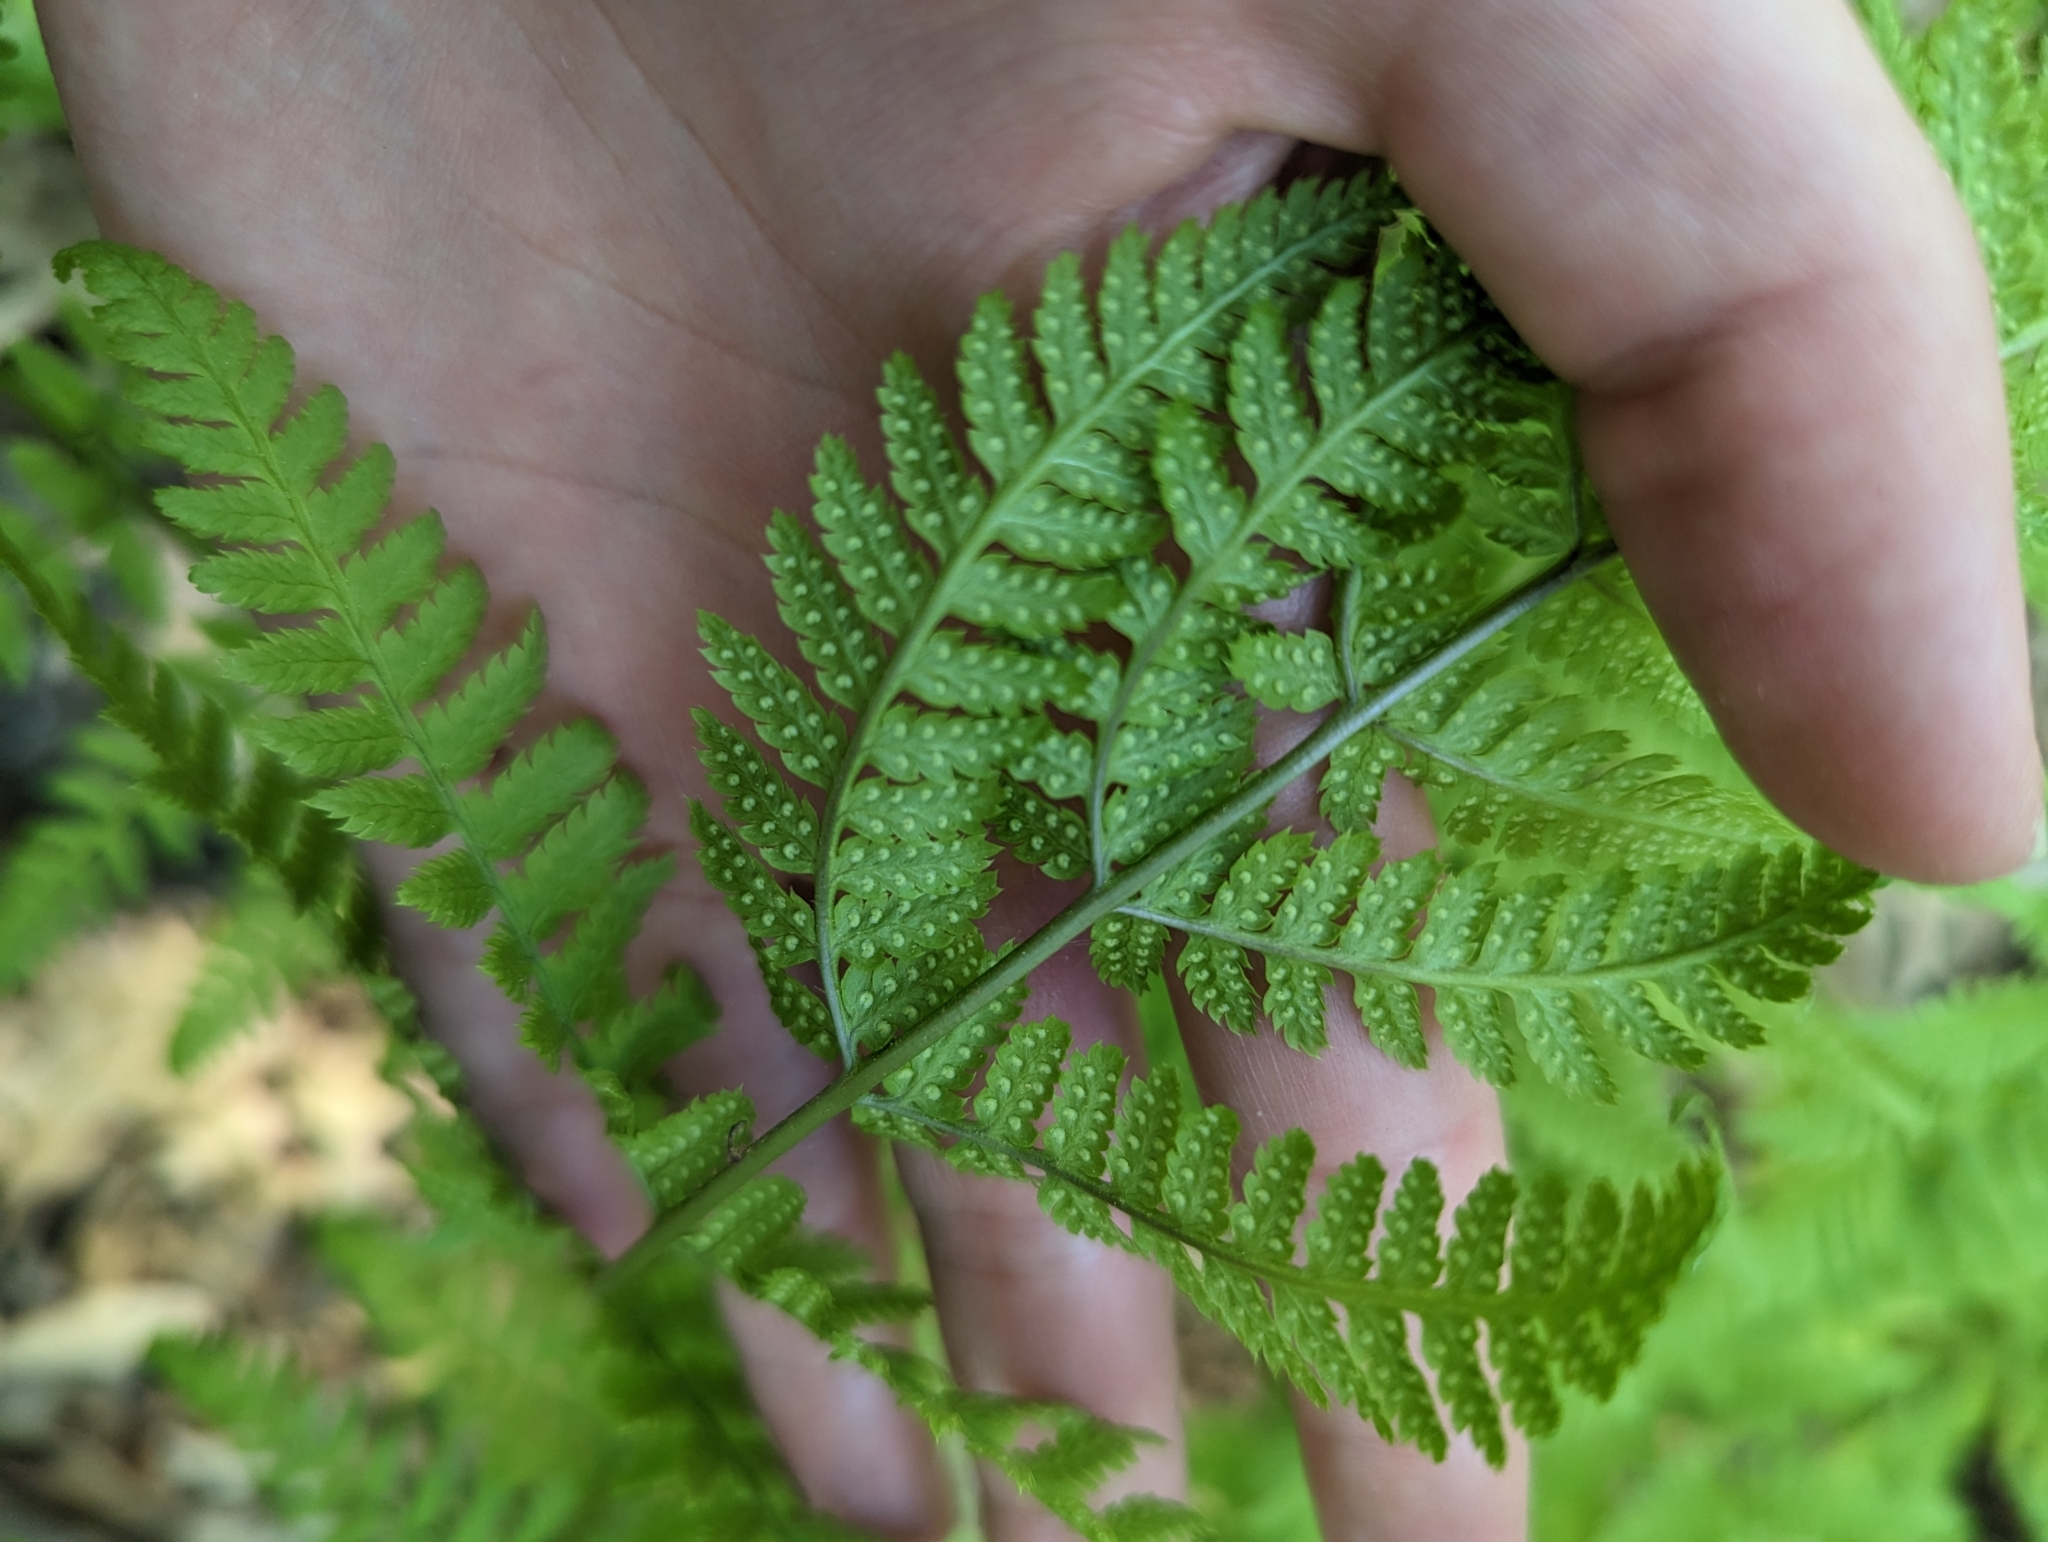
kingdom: Plantae
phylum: Tracheophyta
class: Polypodiopsida
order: Polypodiales
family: Dryopteridaceae
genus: Dryopteris
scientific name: Dryopteris carthusiana
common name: Narrow buckler-fern
